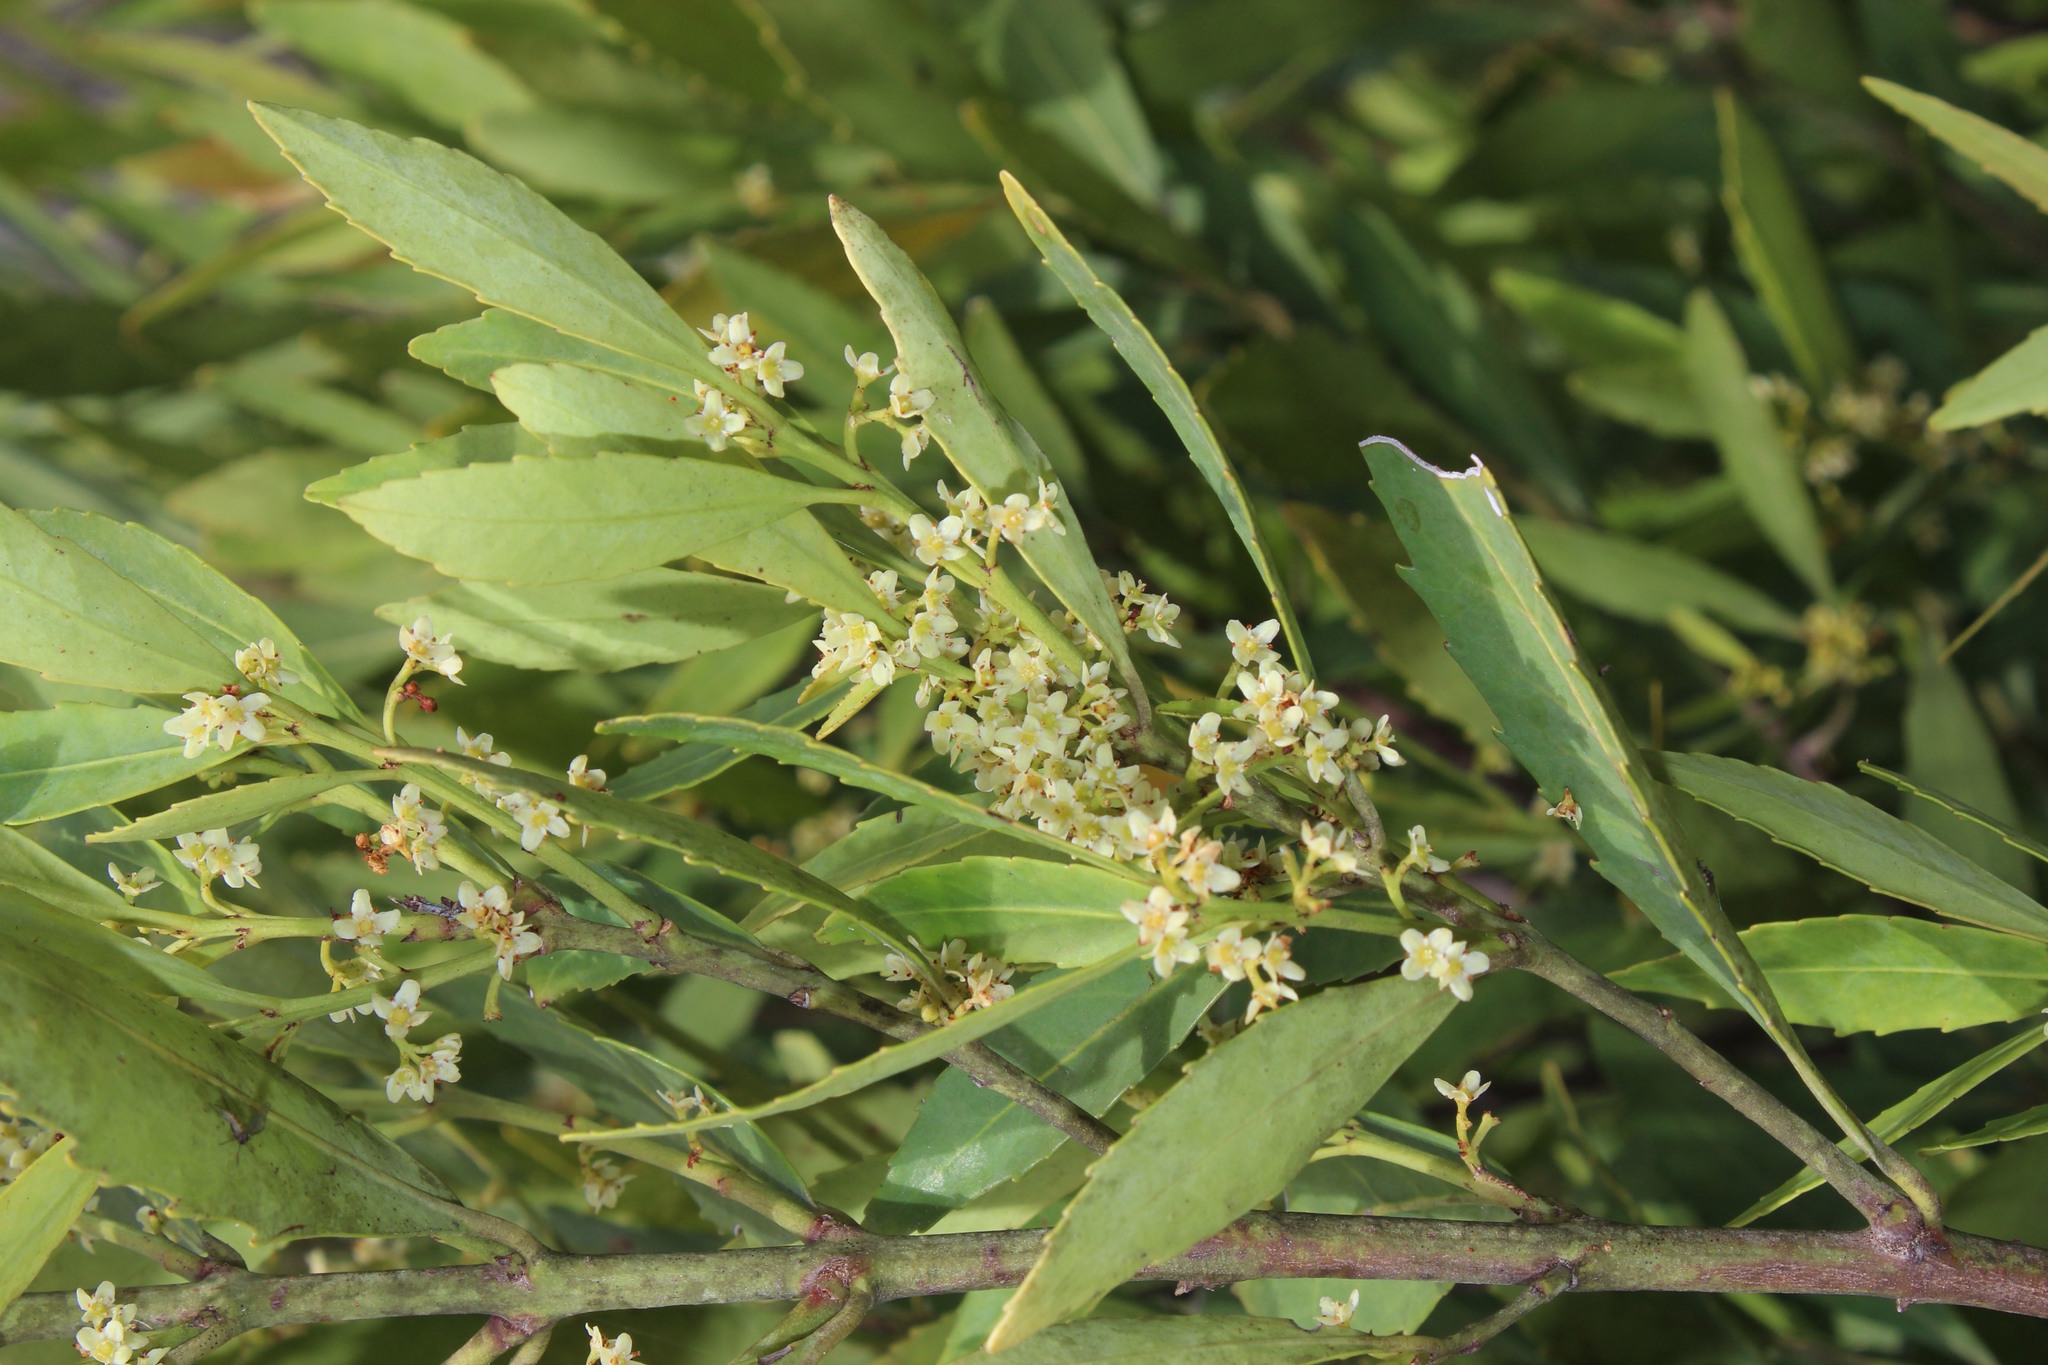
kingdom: Plantae
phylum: Tracheophyta
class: Magnoliopsida
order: Celastrales
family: Celastraceae
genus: Elaeodendron
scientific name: Elaeodendron schinoides
